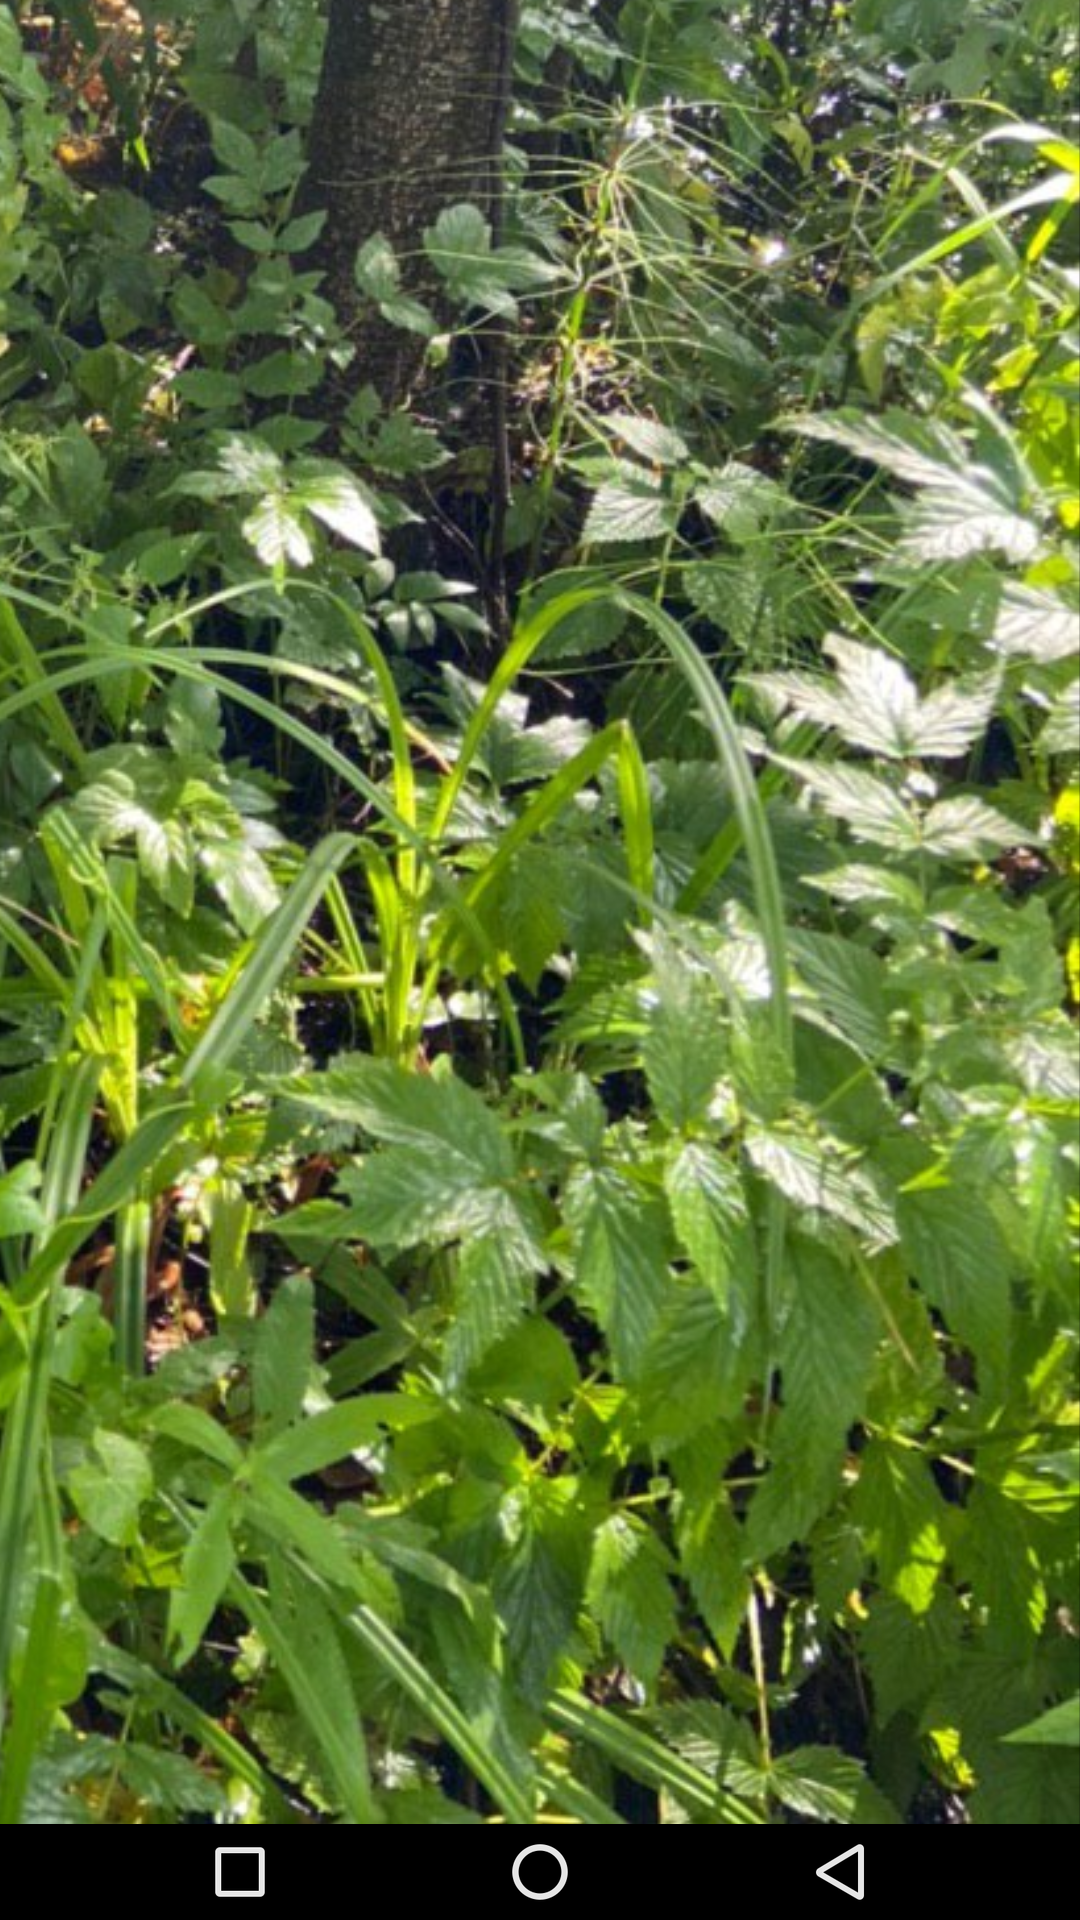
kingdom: Plantae
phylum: Tracheophyta
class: Magnoliopsida
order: Rosales
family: Rosaceae
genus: Filipendula
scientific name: Filipendula ulmaria
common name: Meadowsweet
